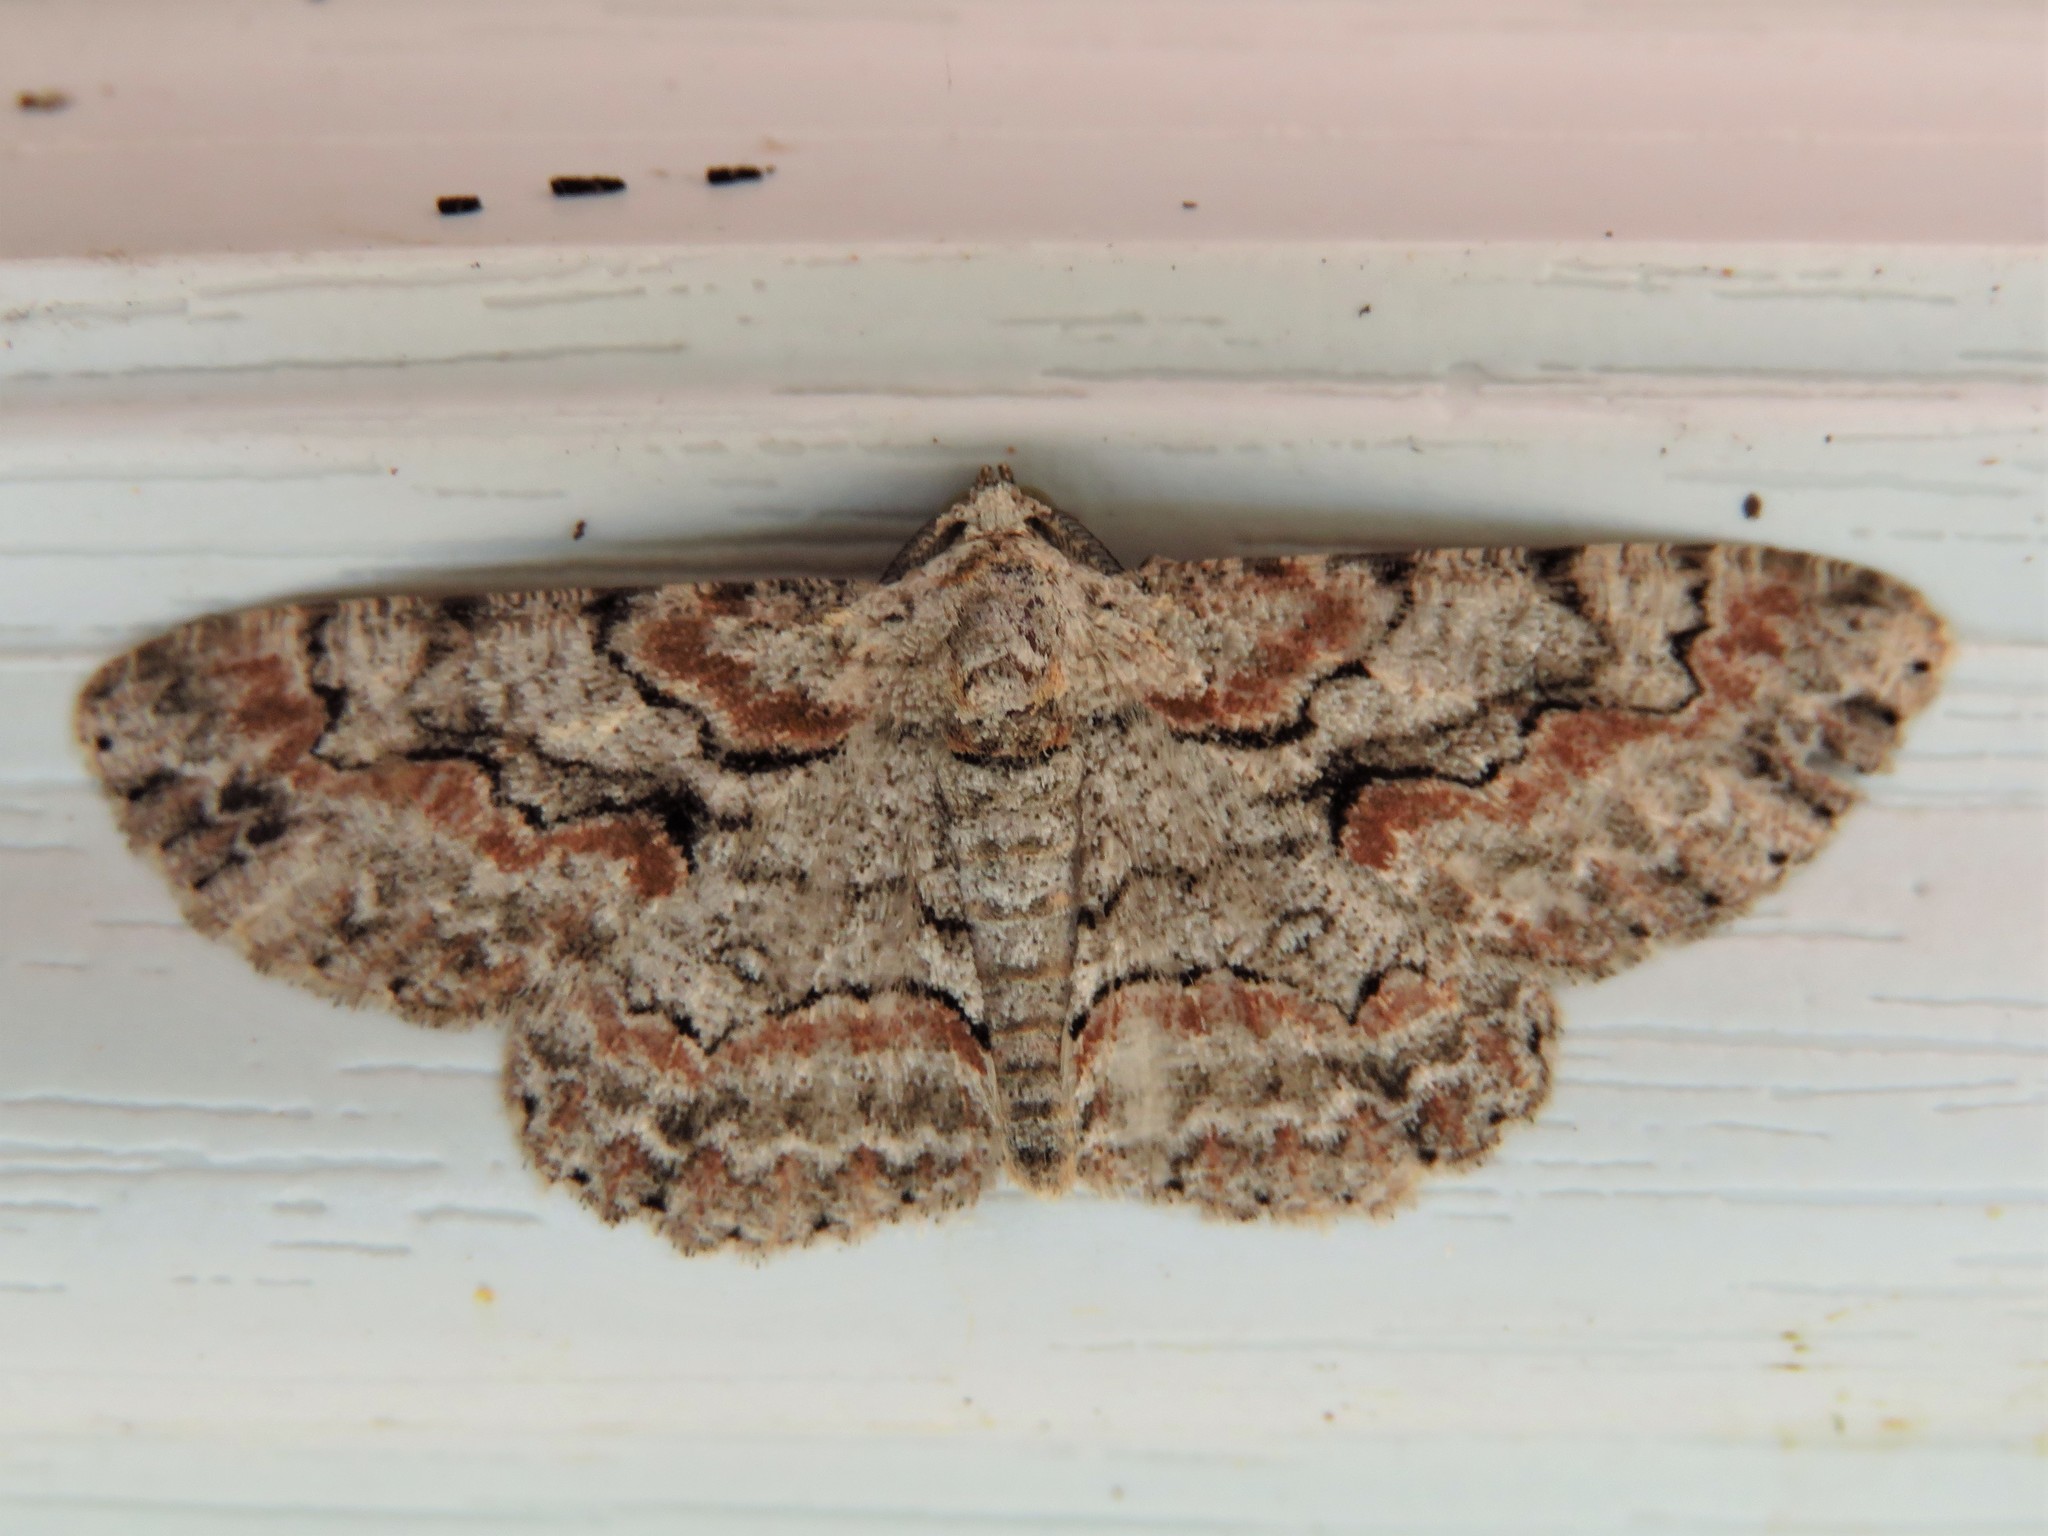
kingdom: Animalia
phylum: Arthropoda
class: Insecta
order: Lepidoptera
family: Geometridae
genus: Iridopsis
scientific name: Iridopsis defectaria
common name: Brown-shaded gray
